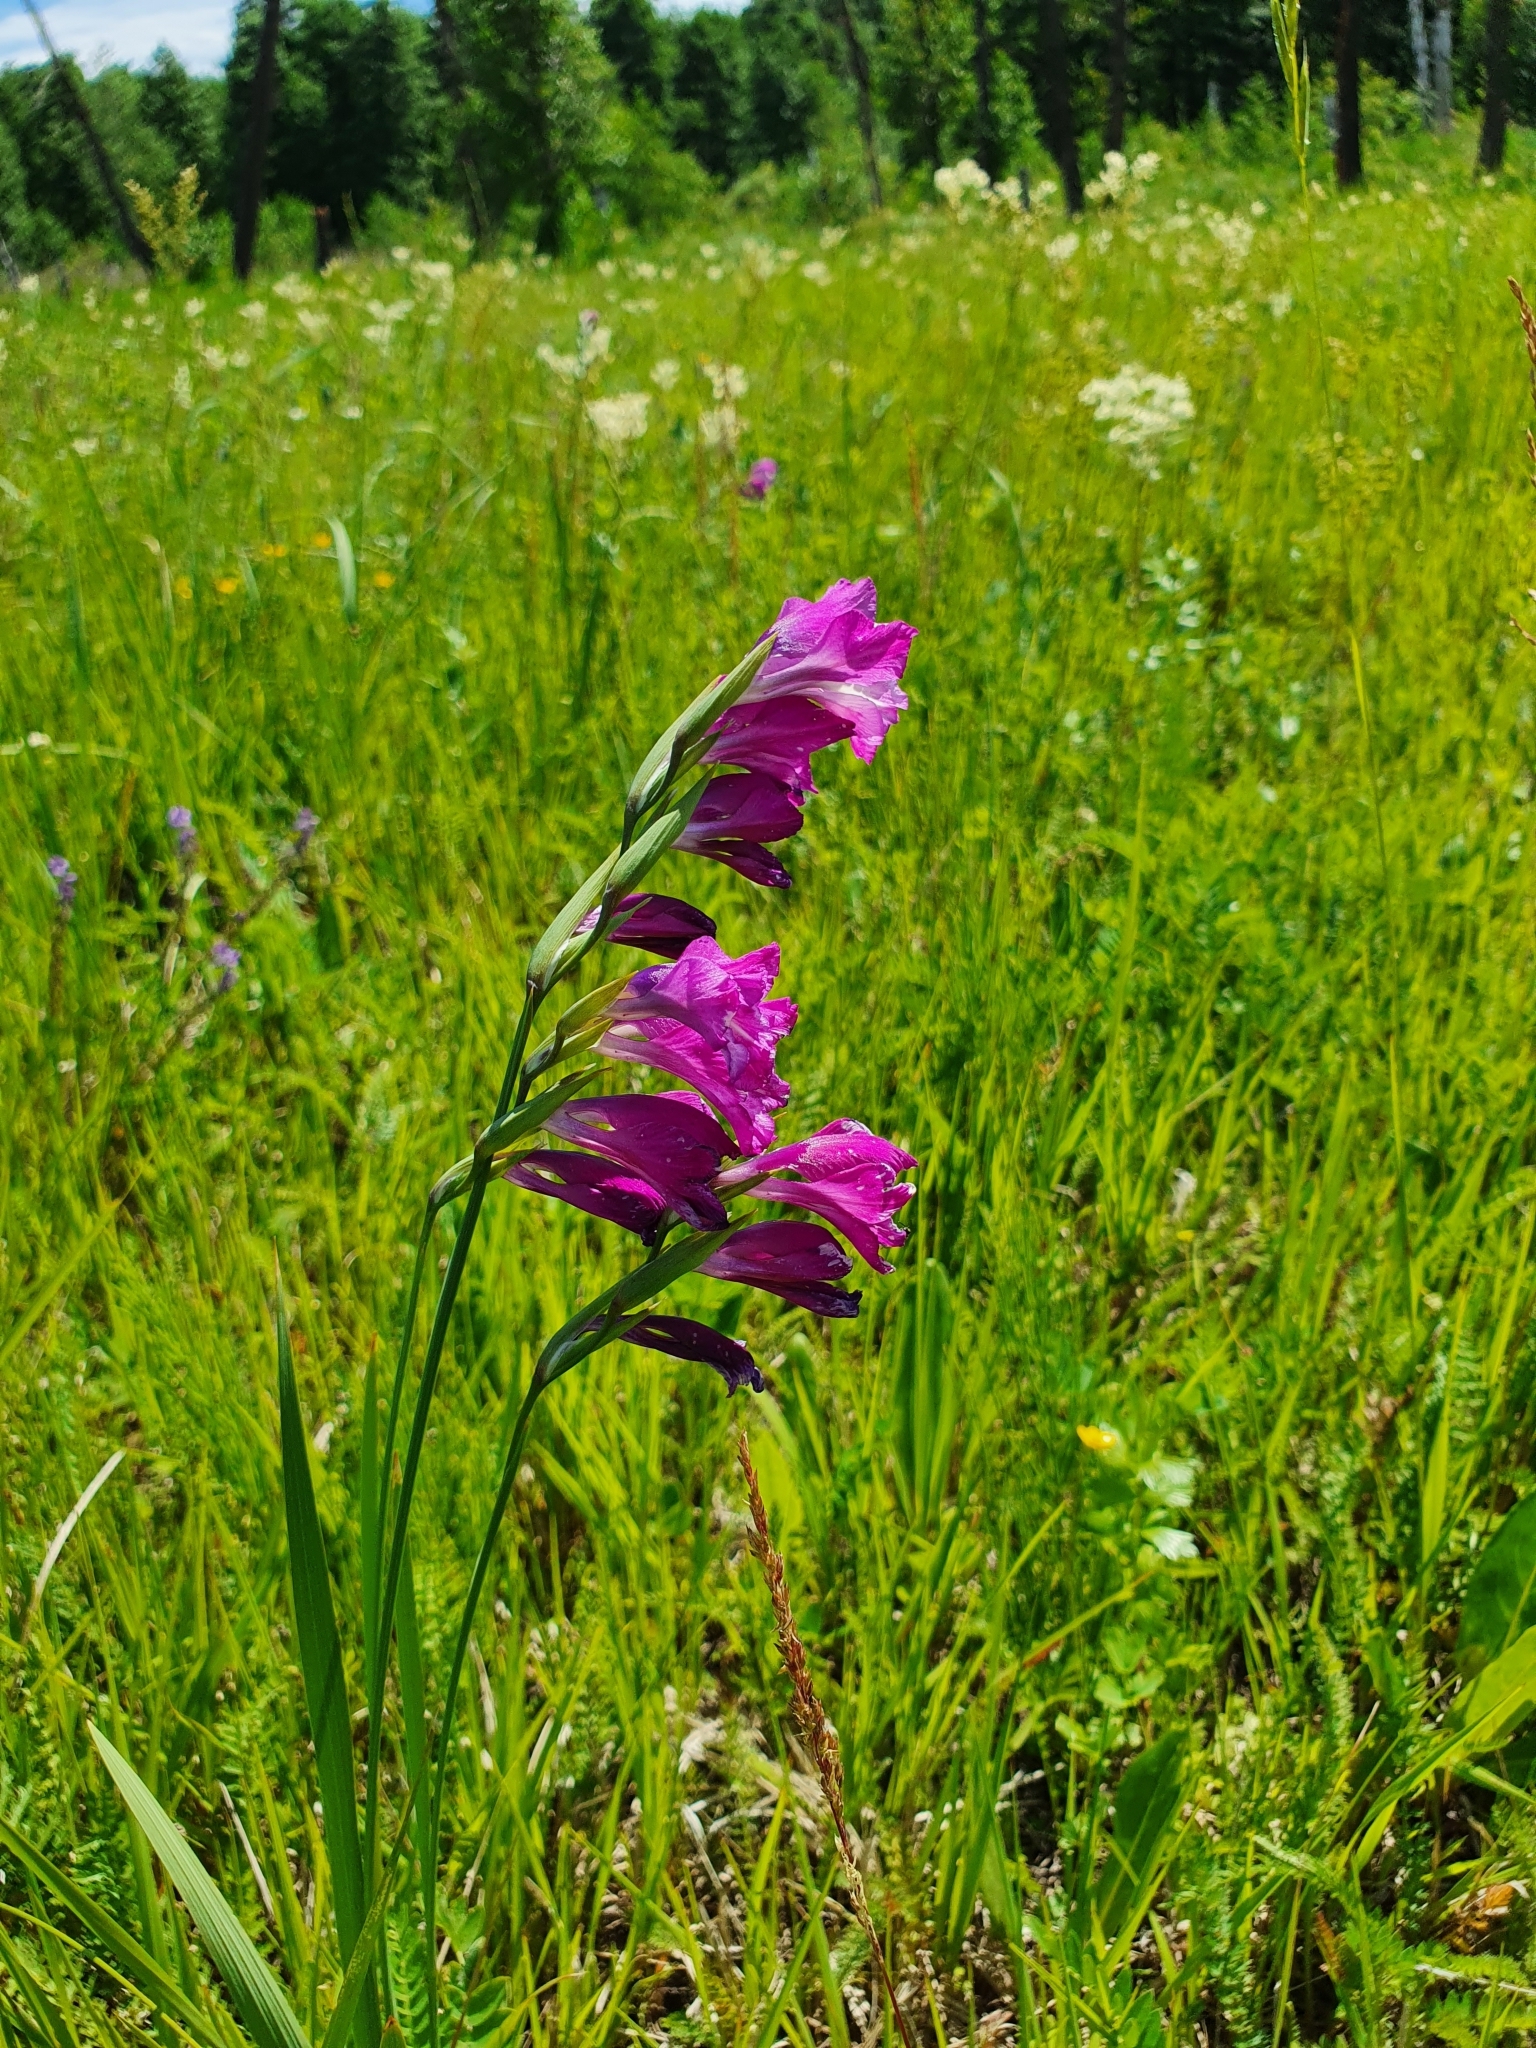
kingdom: Plantae
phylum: Tracheophyta
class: Liliopsida
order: Asparagales
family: Iridaceae
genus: Gladiolus
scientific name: Gladiolus tenuis
